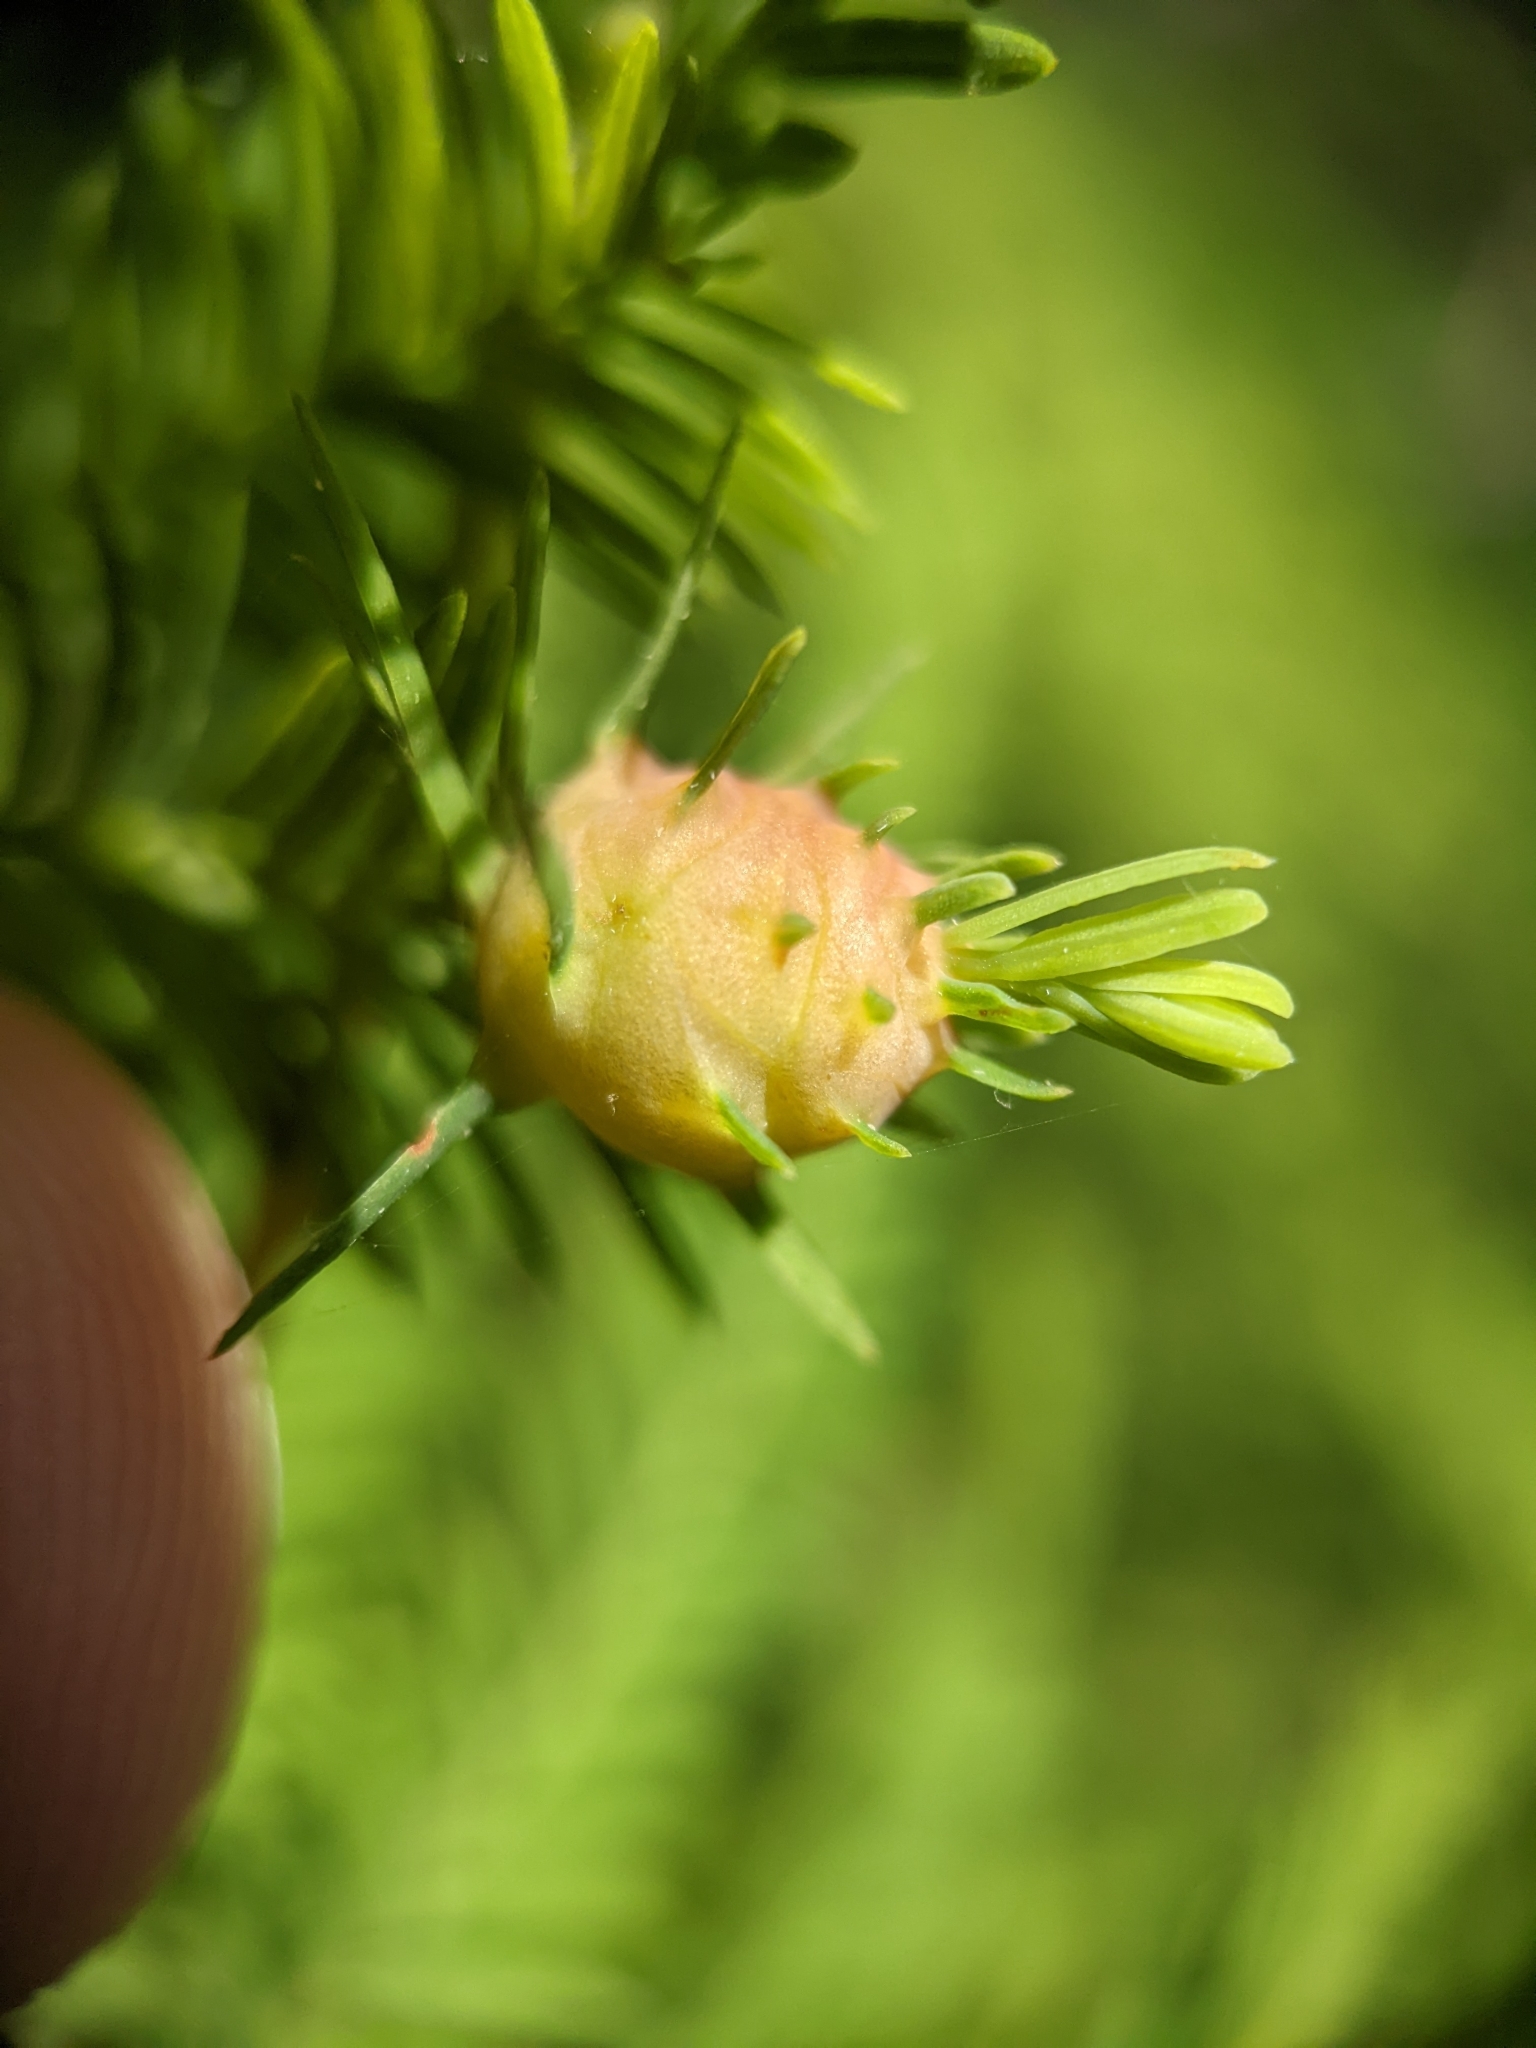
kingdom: Animalia
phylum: Arthropoda
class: Insecta
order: Diptera
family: Cecidomyiidae
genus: Taxodiomyia
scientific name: Taxodiomyia cupressiananassa
